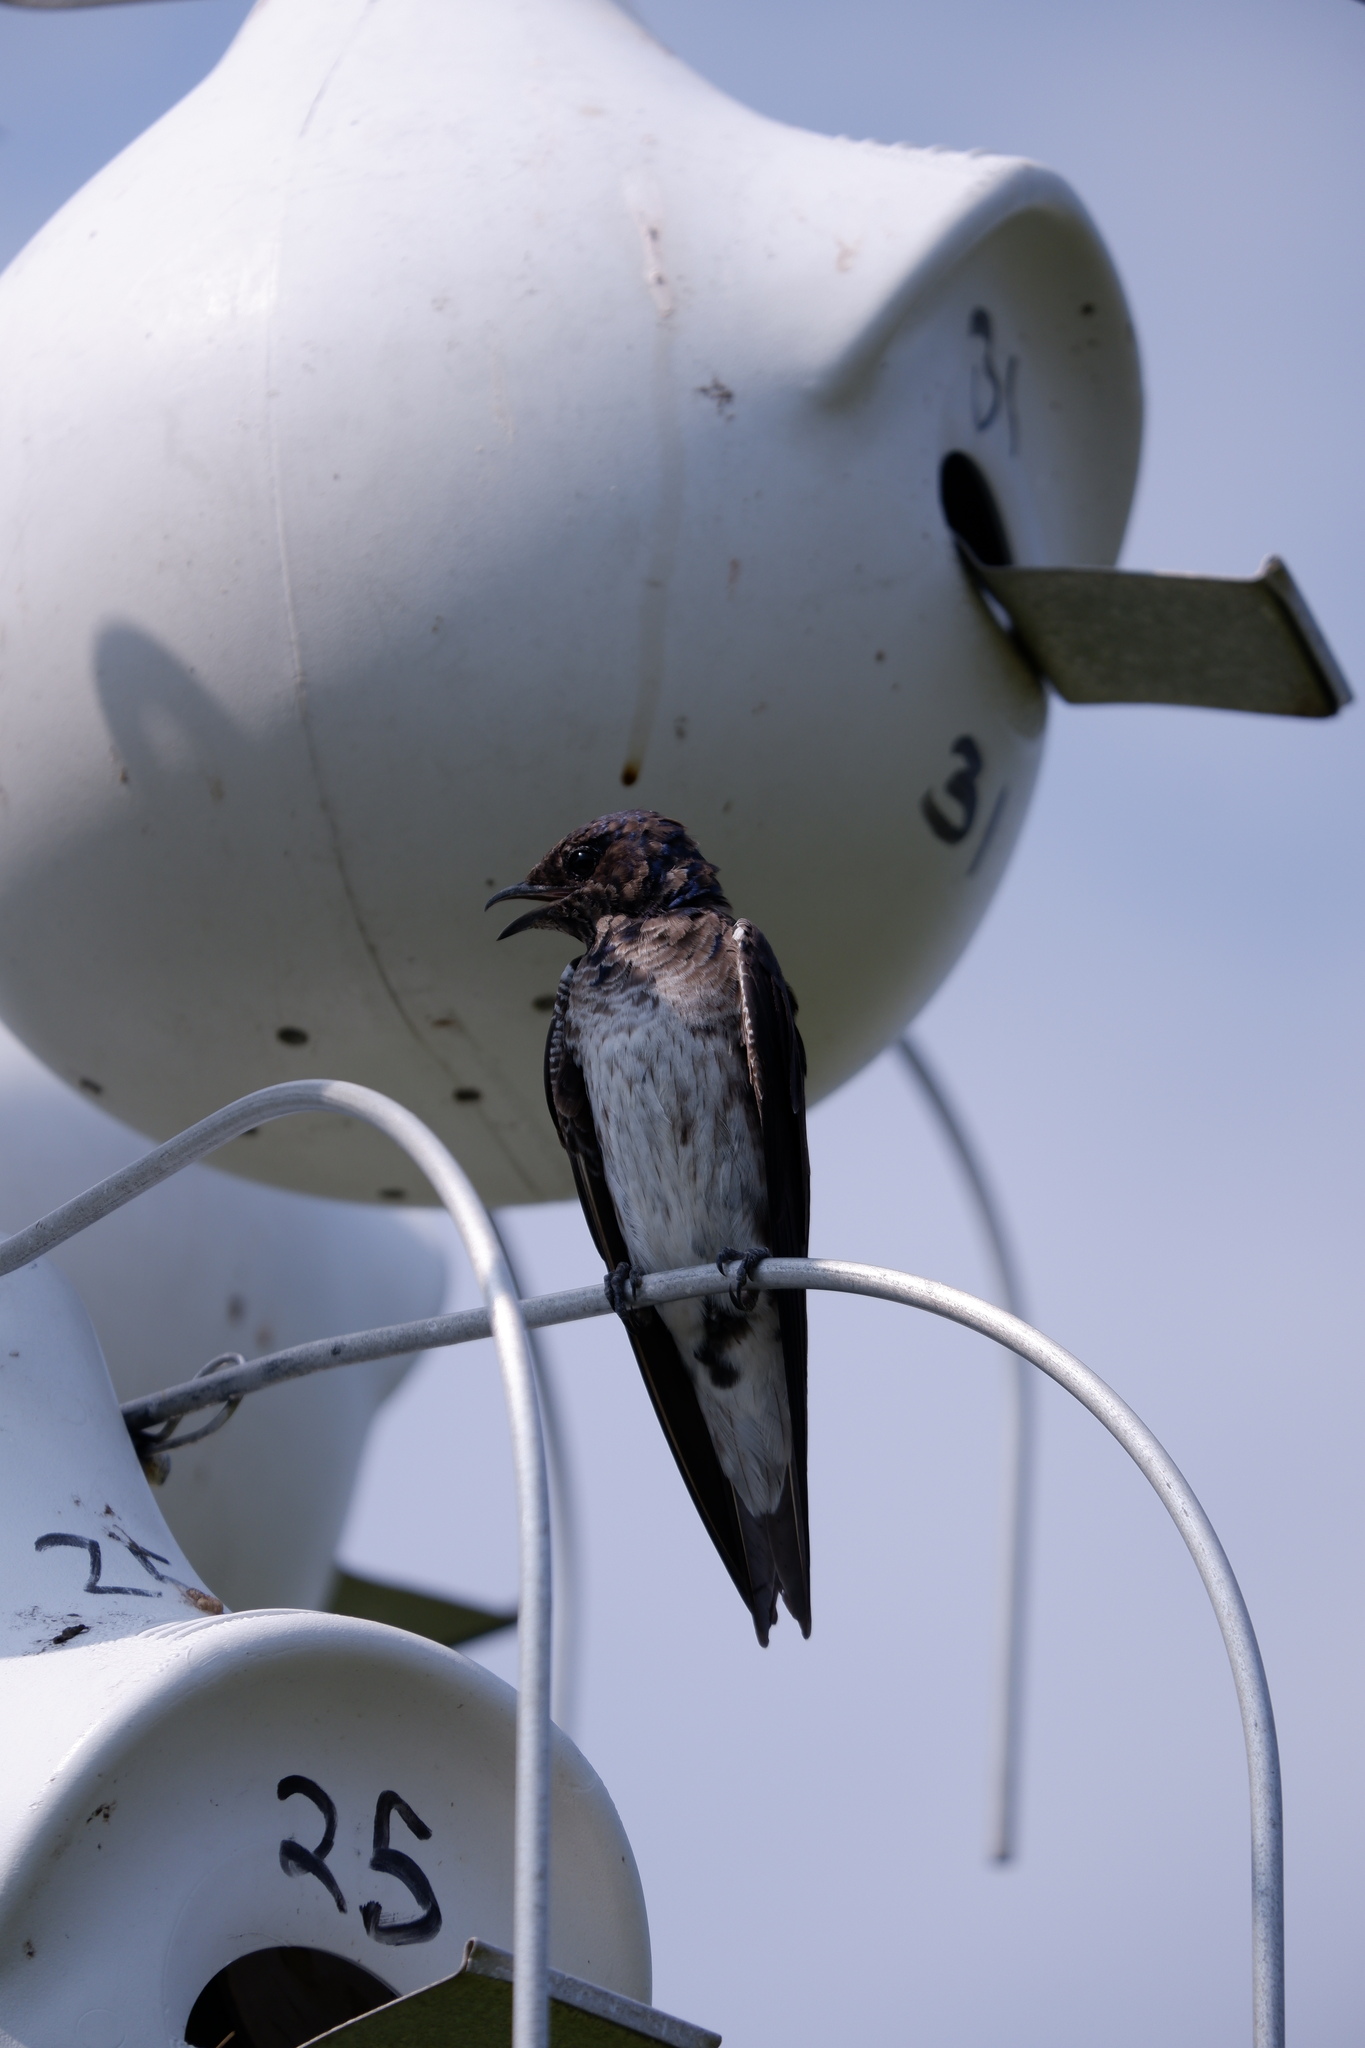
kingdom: Animalia
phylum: Chordata
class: Aves
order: Passeriformes
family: Hirundinidae
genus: Progne
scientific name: Progne subis
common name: Purple martin
